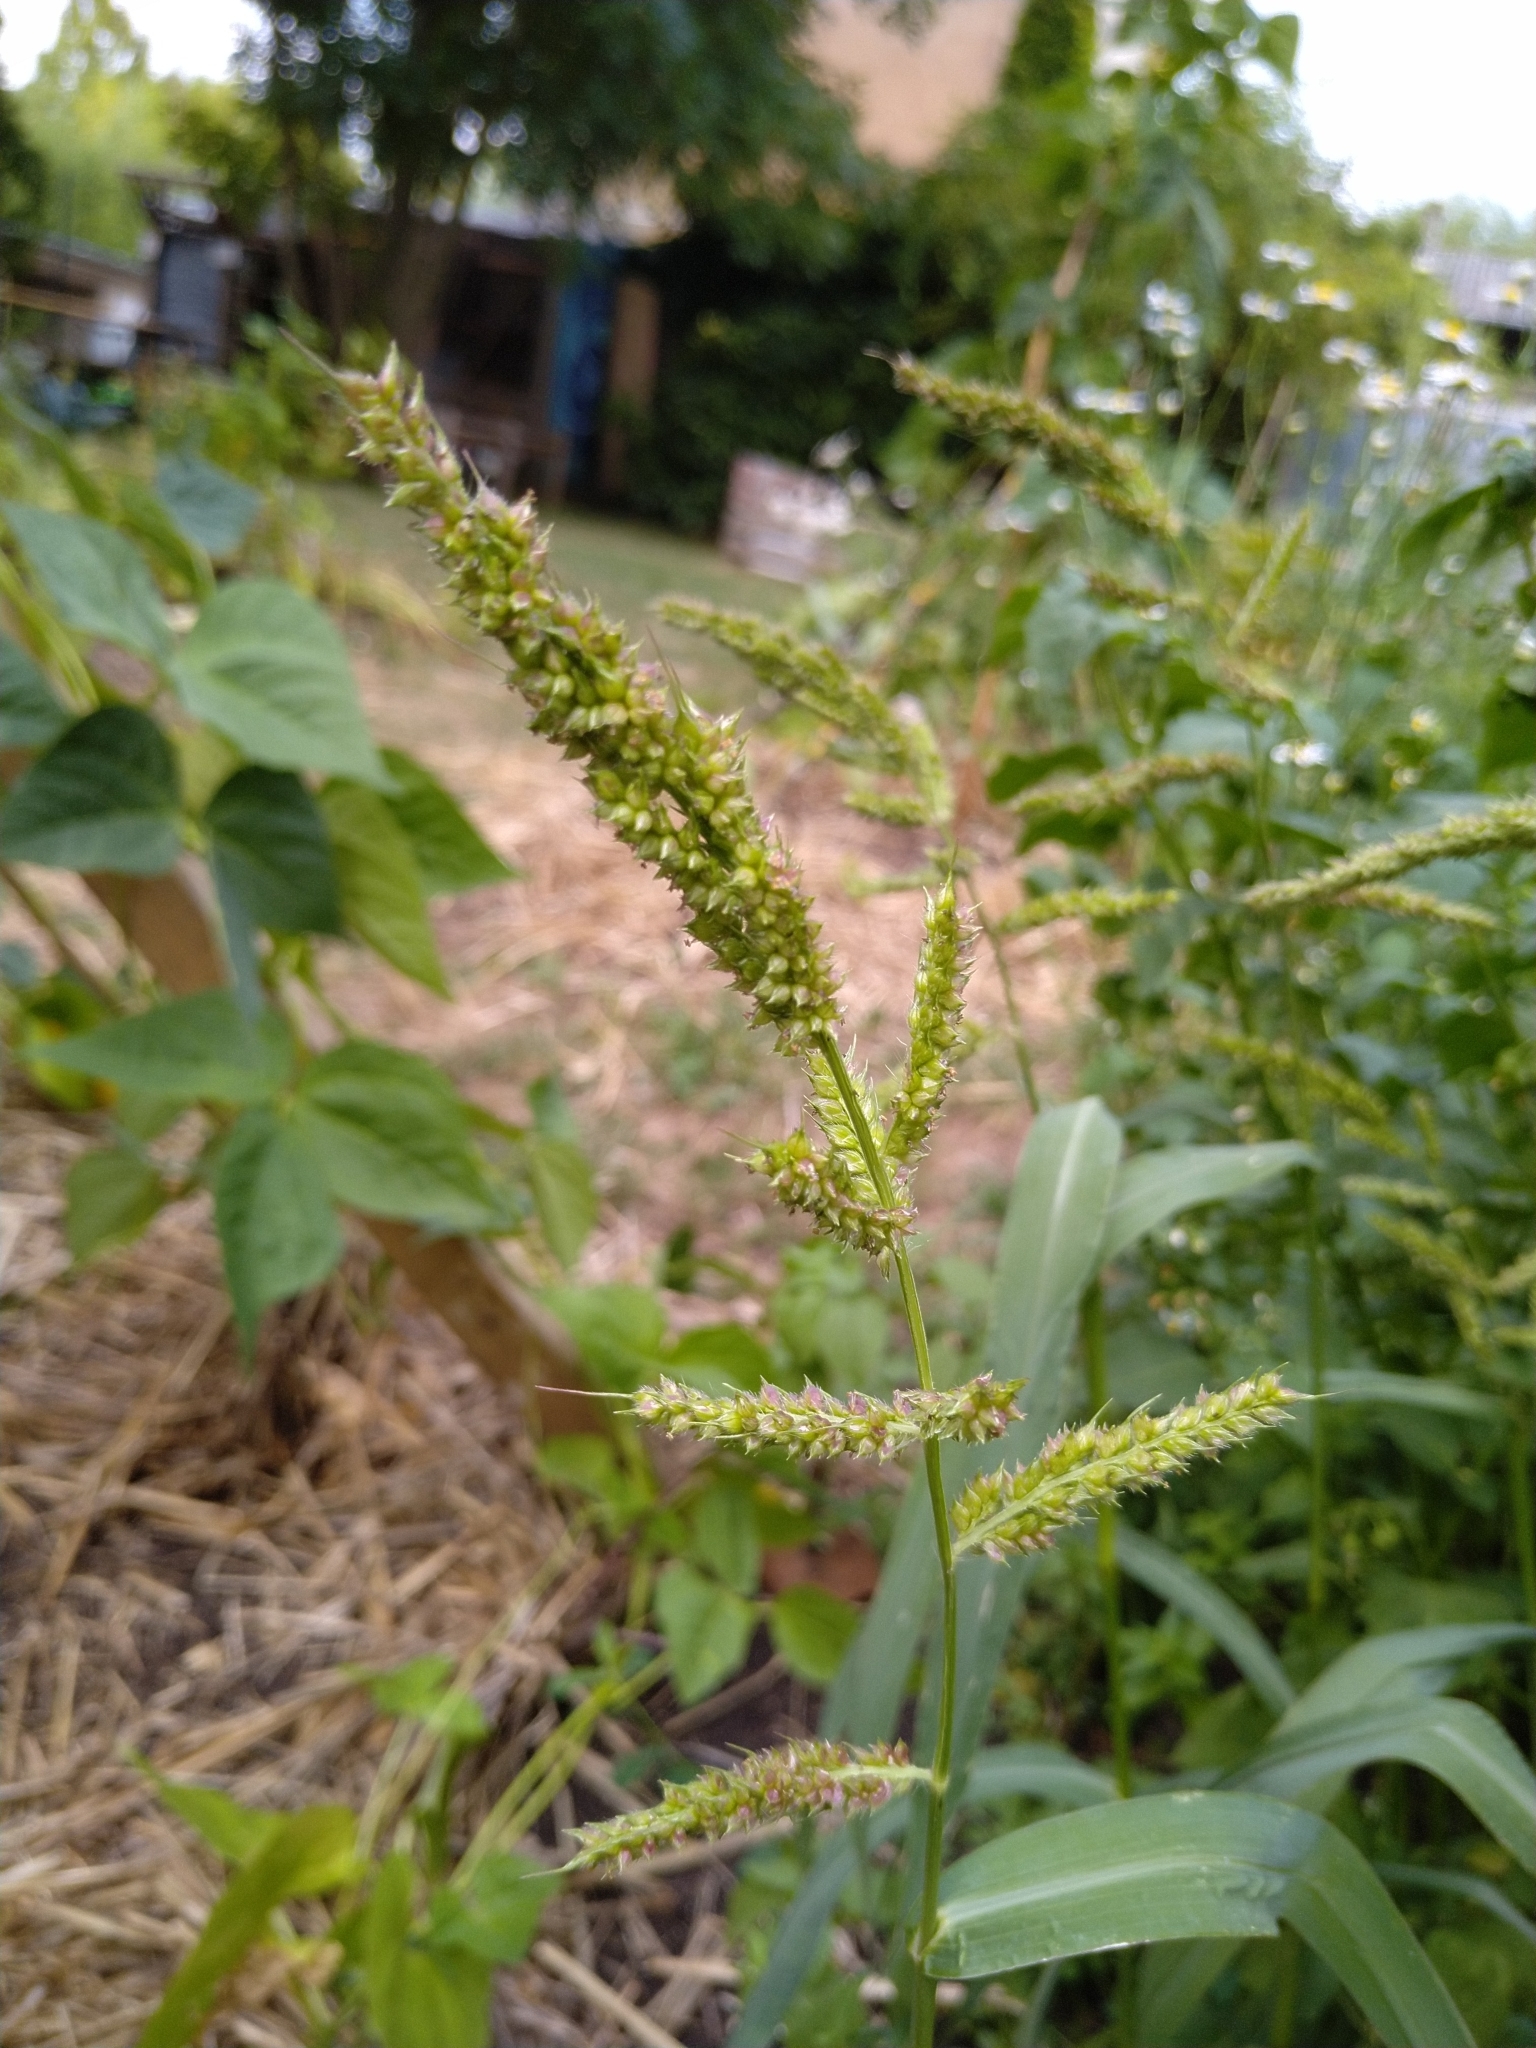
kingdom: Plantae
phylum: Tracheophyta
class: Liliopsida
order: Poales
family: Poaceae
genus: Echinochloa
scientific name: Echinochloa crus-galli
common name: Cockspur
